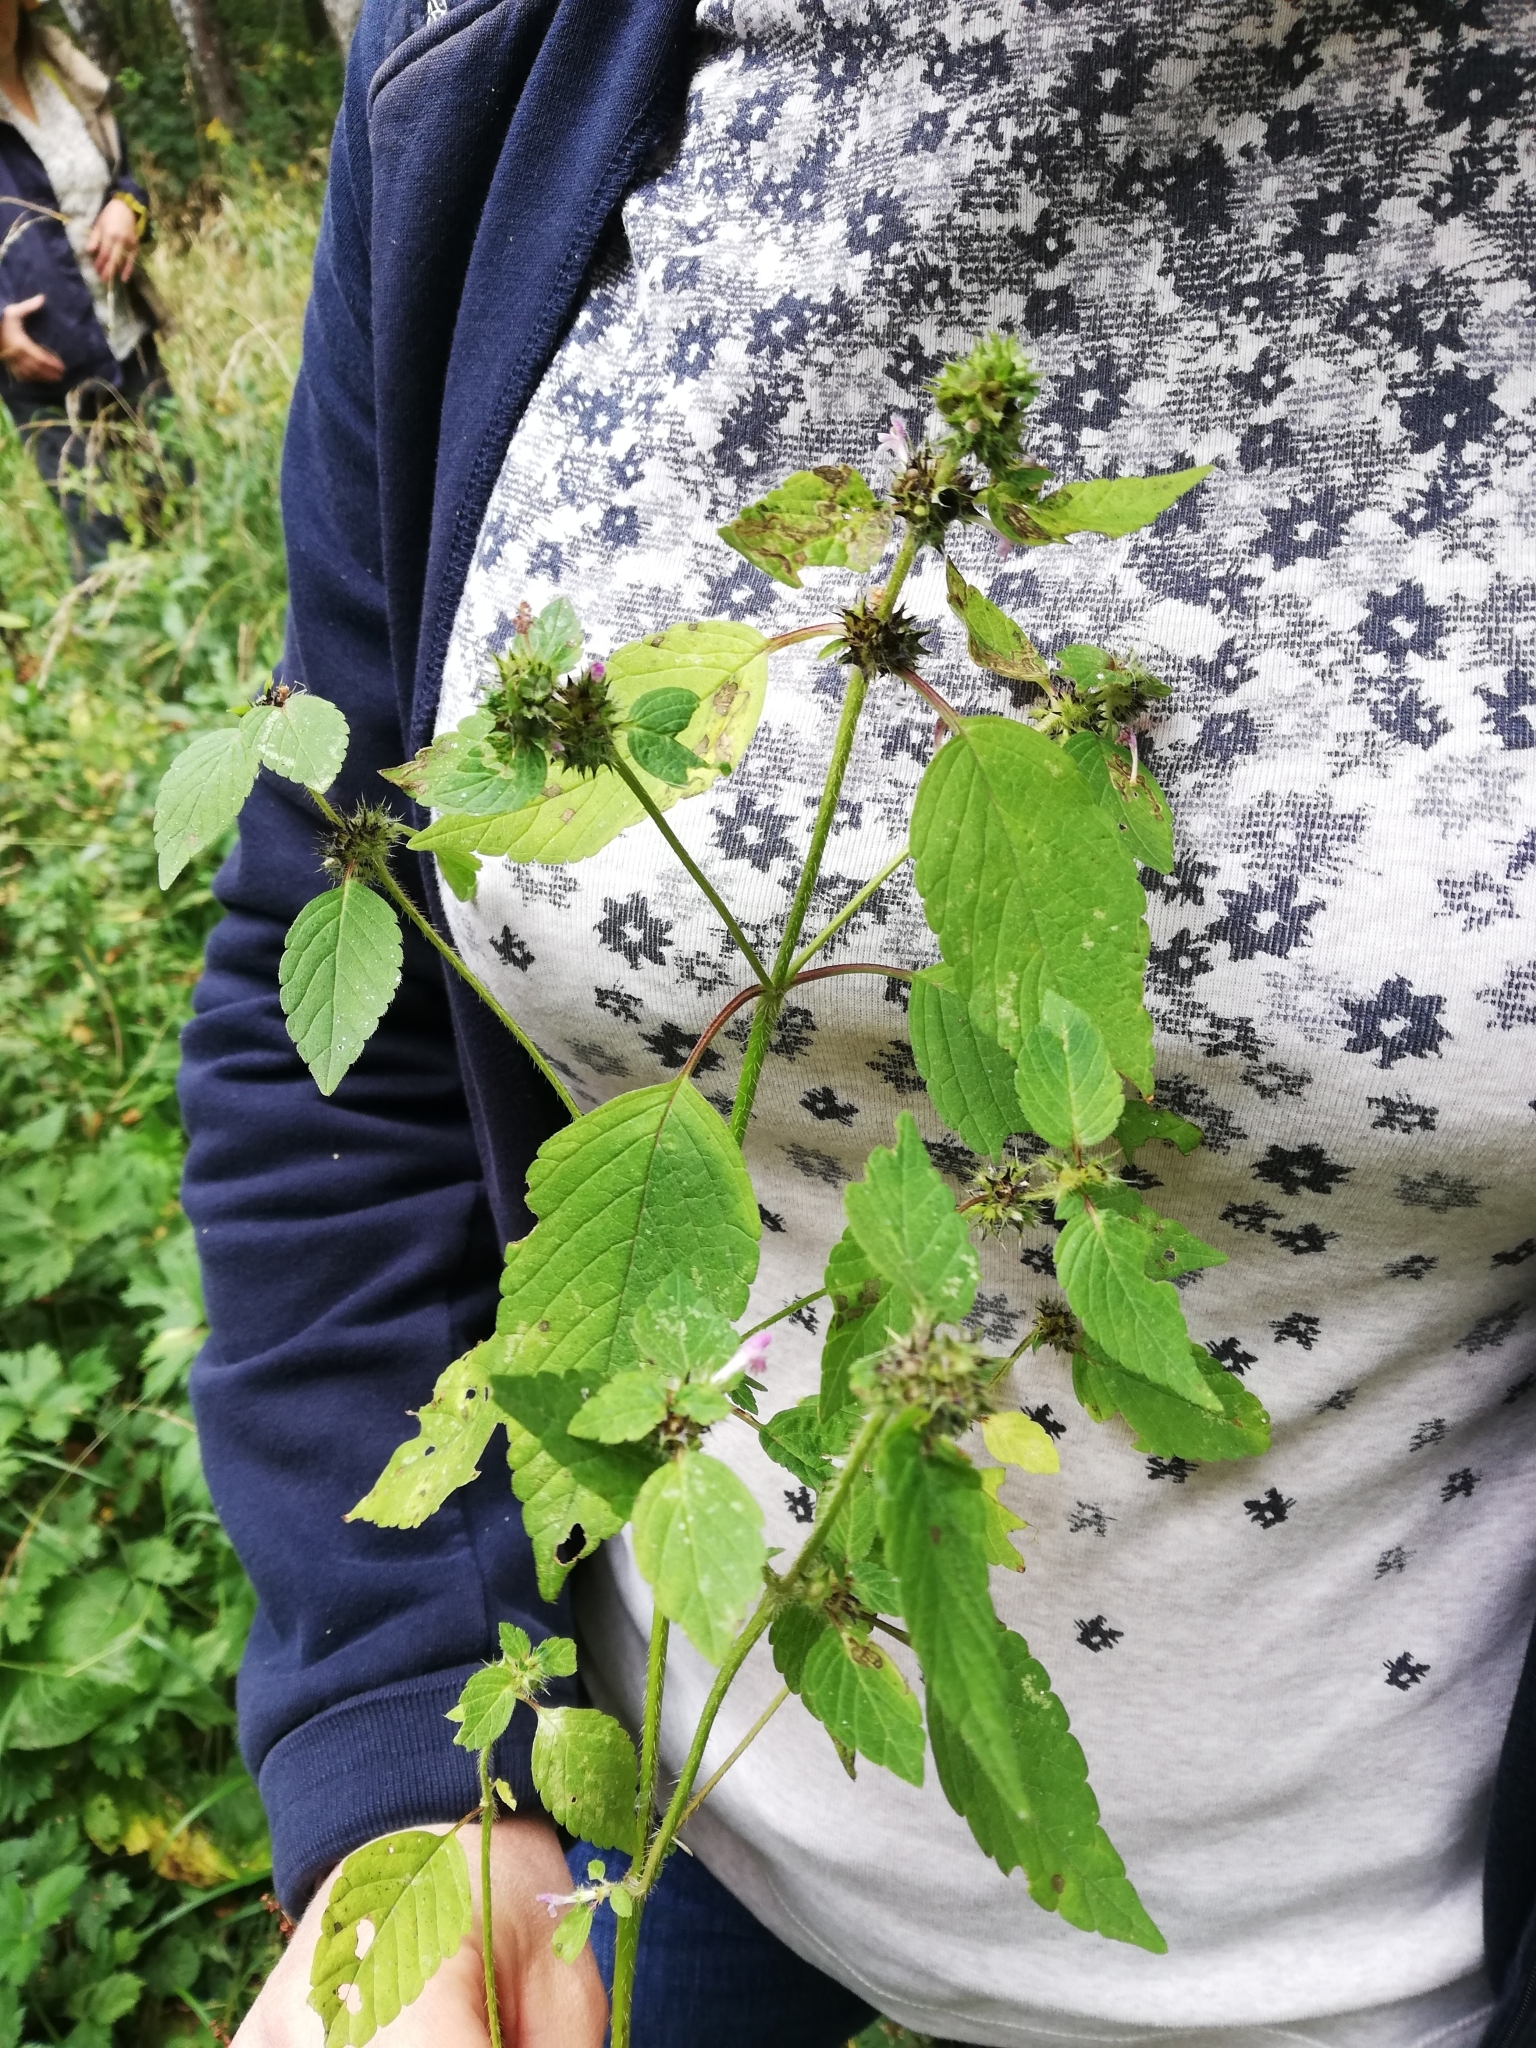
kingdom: Plantae
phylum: Tracheophyta
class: Magnoliopsida
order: Lamiales
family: Lamiaceae
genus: Galeopsis
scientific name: Galeopsis bifida
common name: Bifid hemp-nettle
